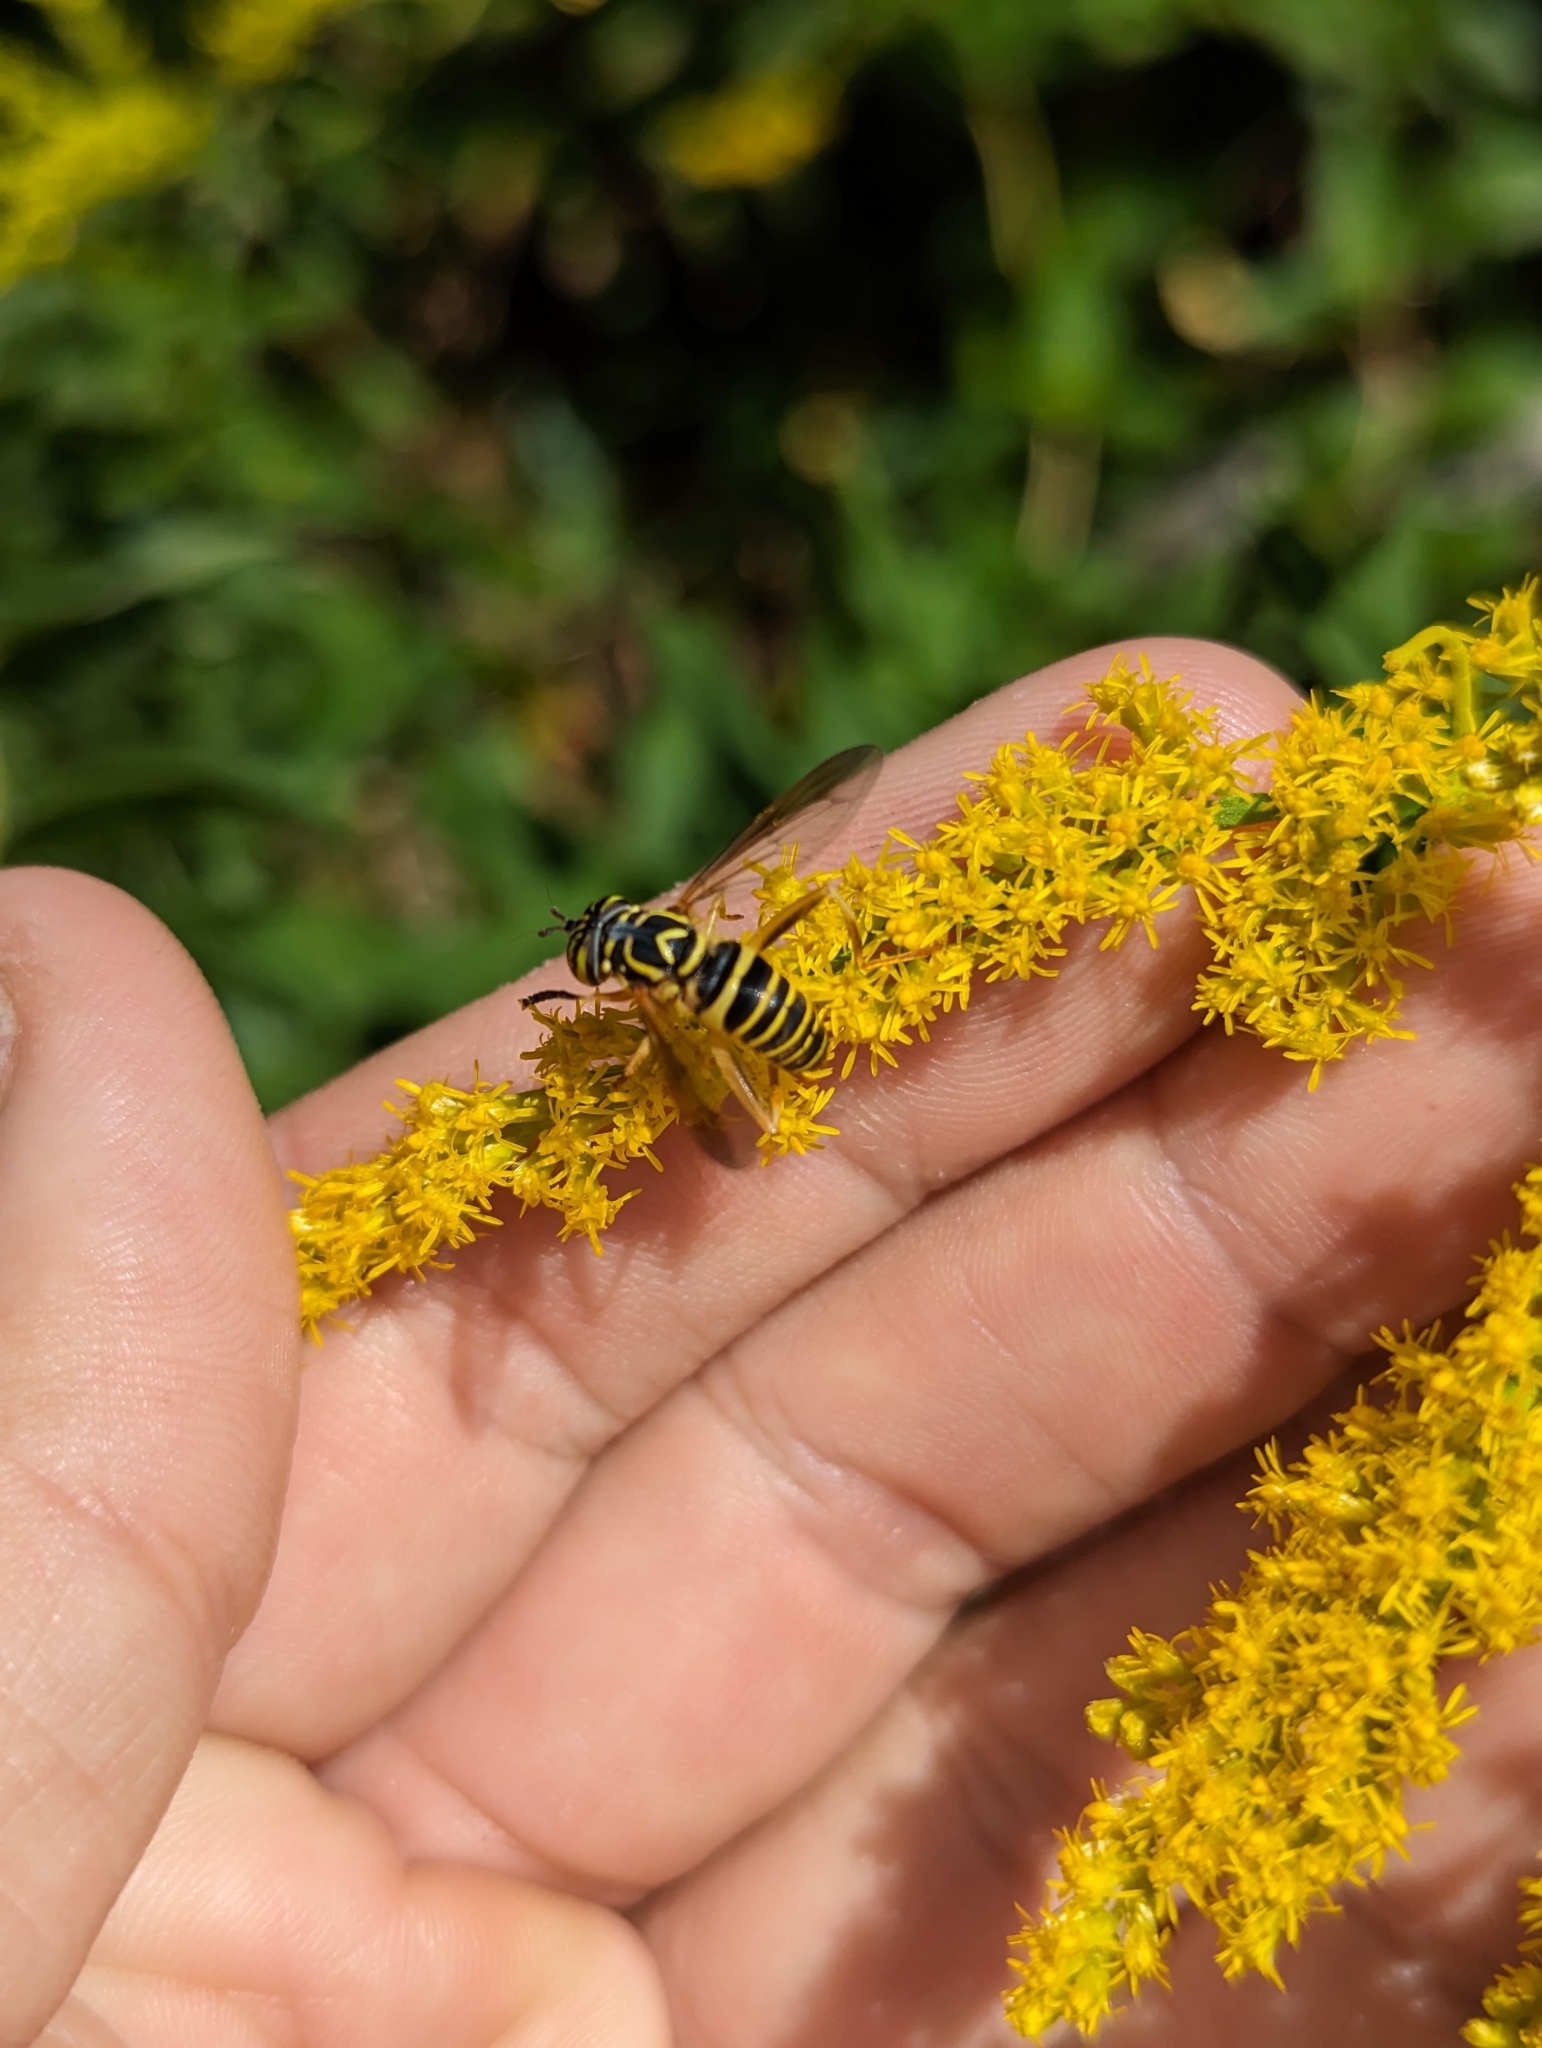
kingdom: Animalia
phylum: Arthropoda
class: Insecta
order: Diptera
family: Syrphidae
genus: Spilomyia
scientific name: Spilomyia longicornis
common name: Eastern hornet fly
